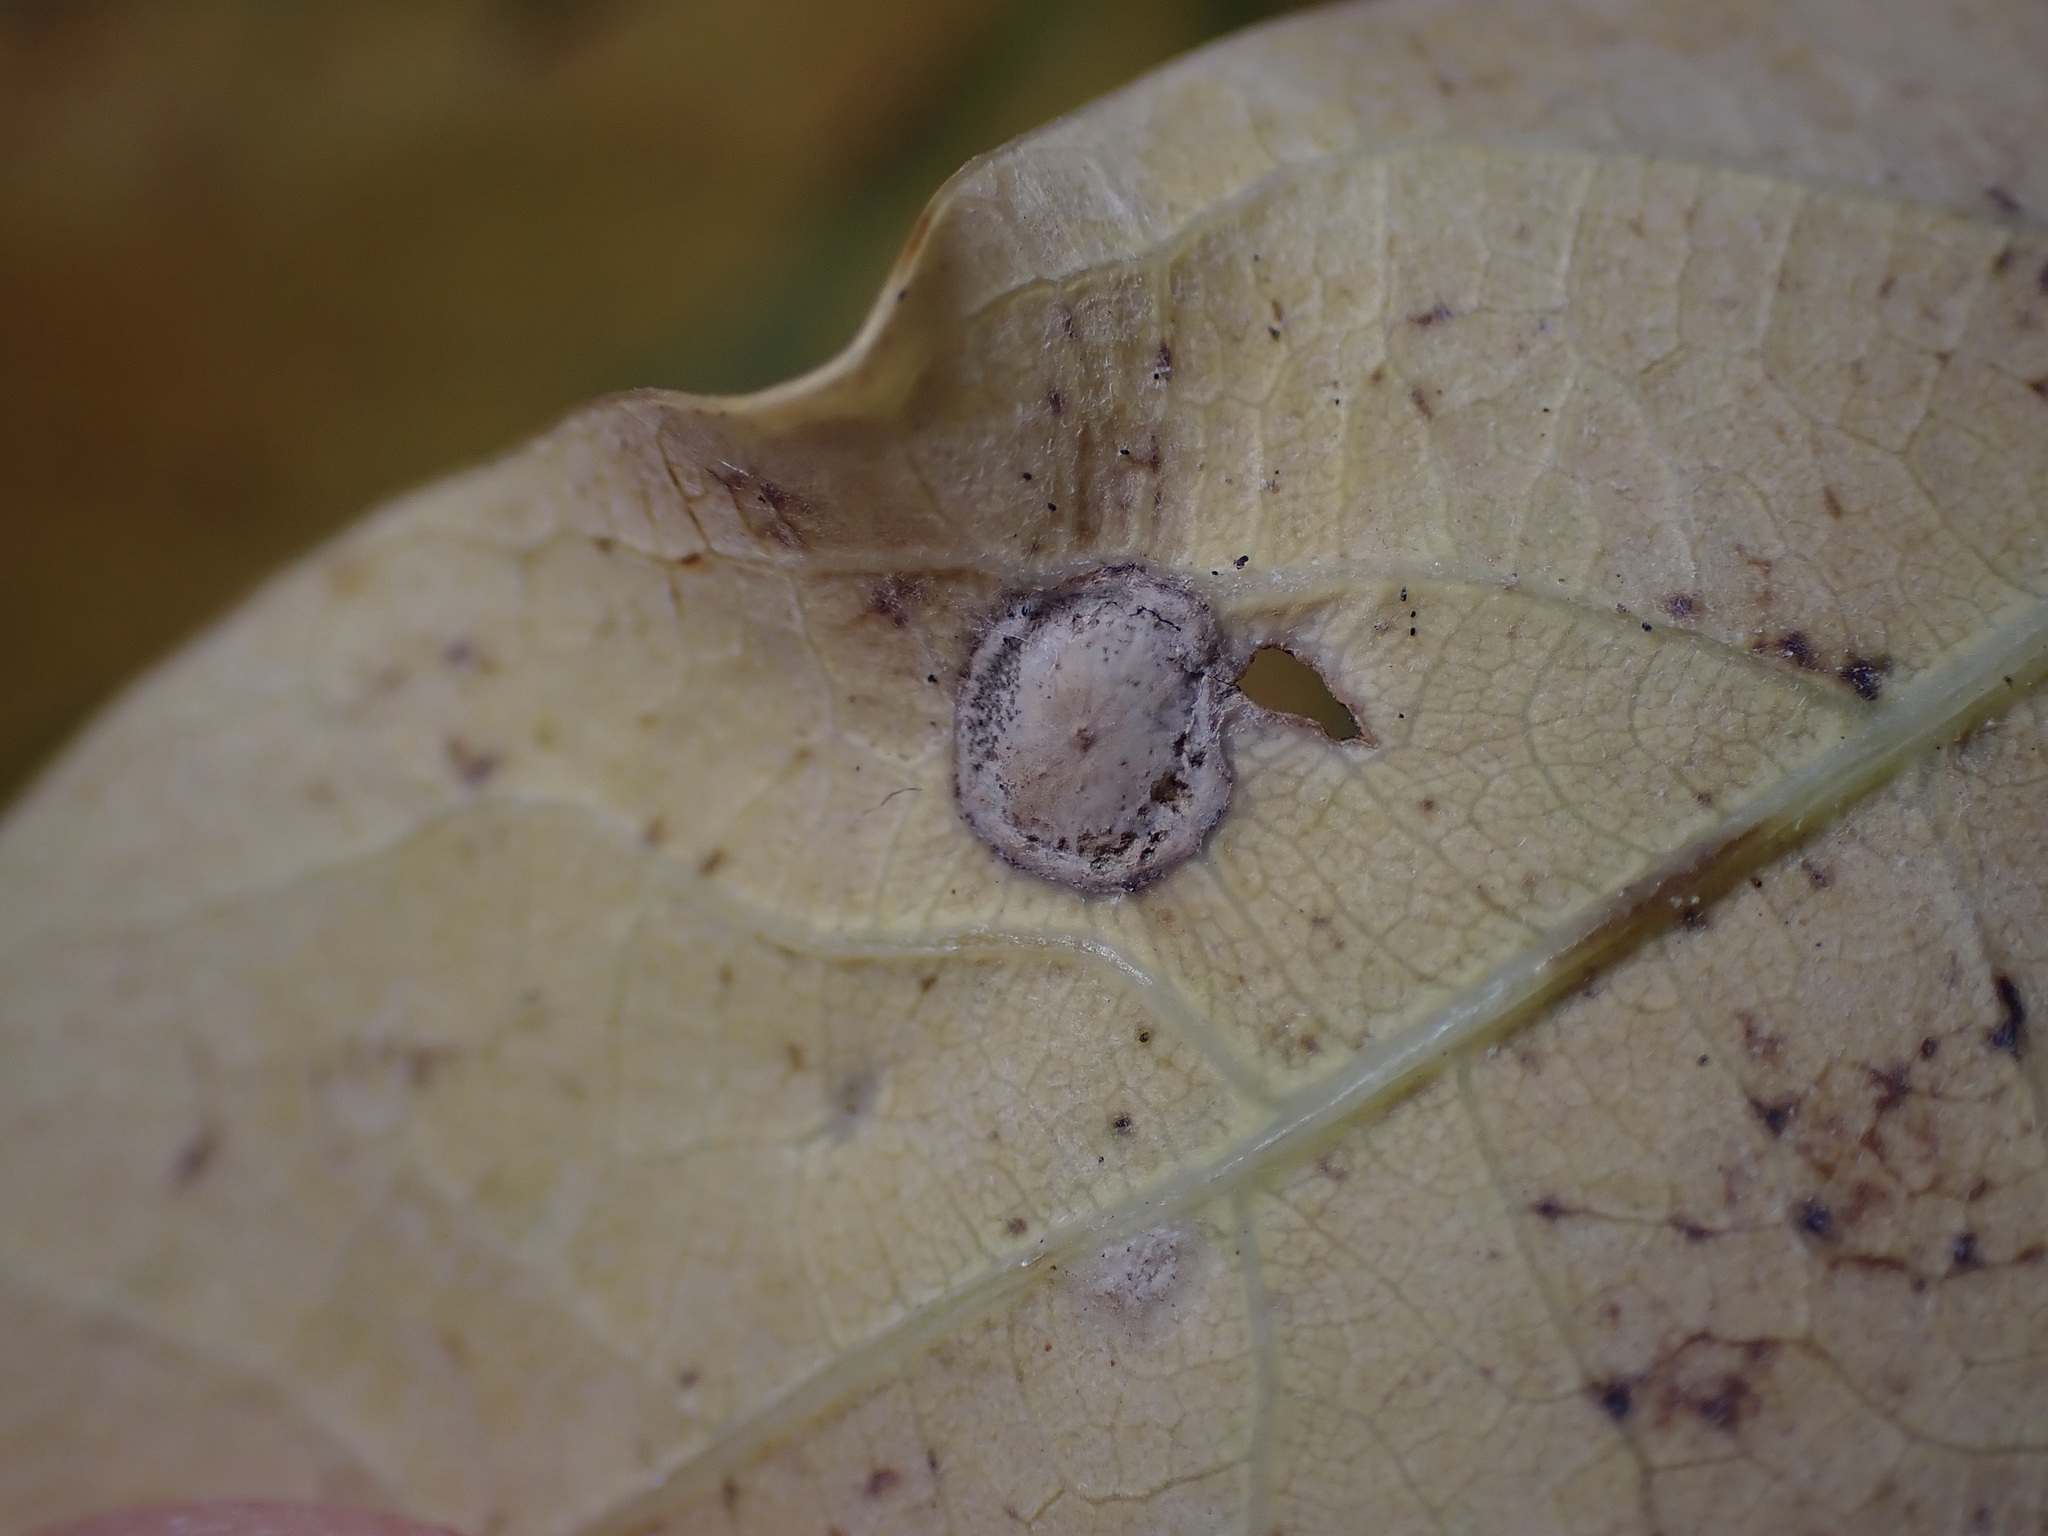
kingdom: Animalia
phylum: Arthropoda
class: Insecta
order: Hymenoptera
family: Cynipidae
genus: Neuroterus
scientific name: Neuroterus numismalis
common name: Silk-button spangle gall
